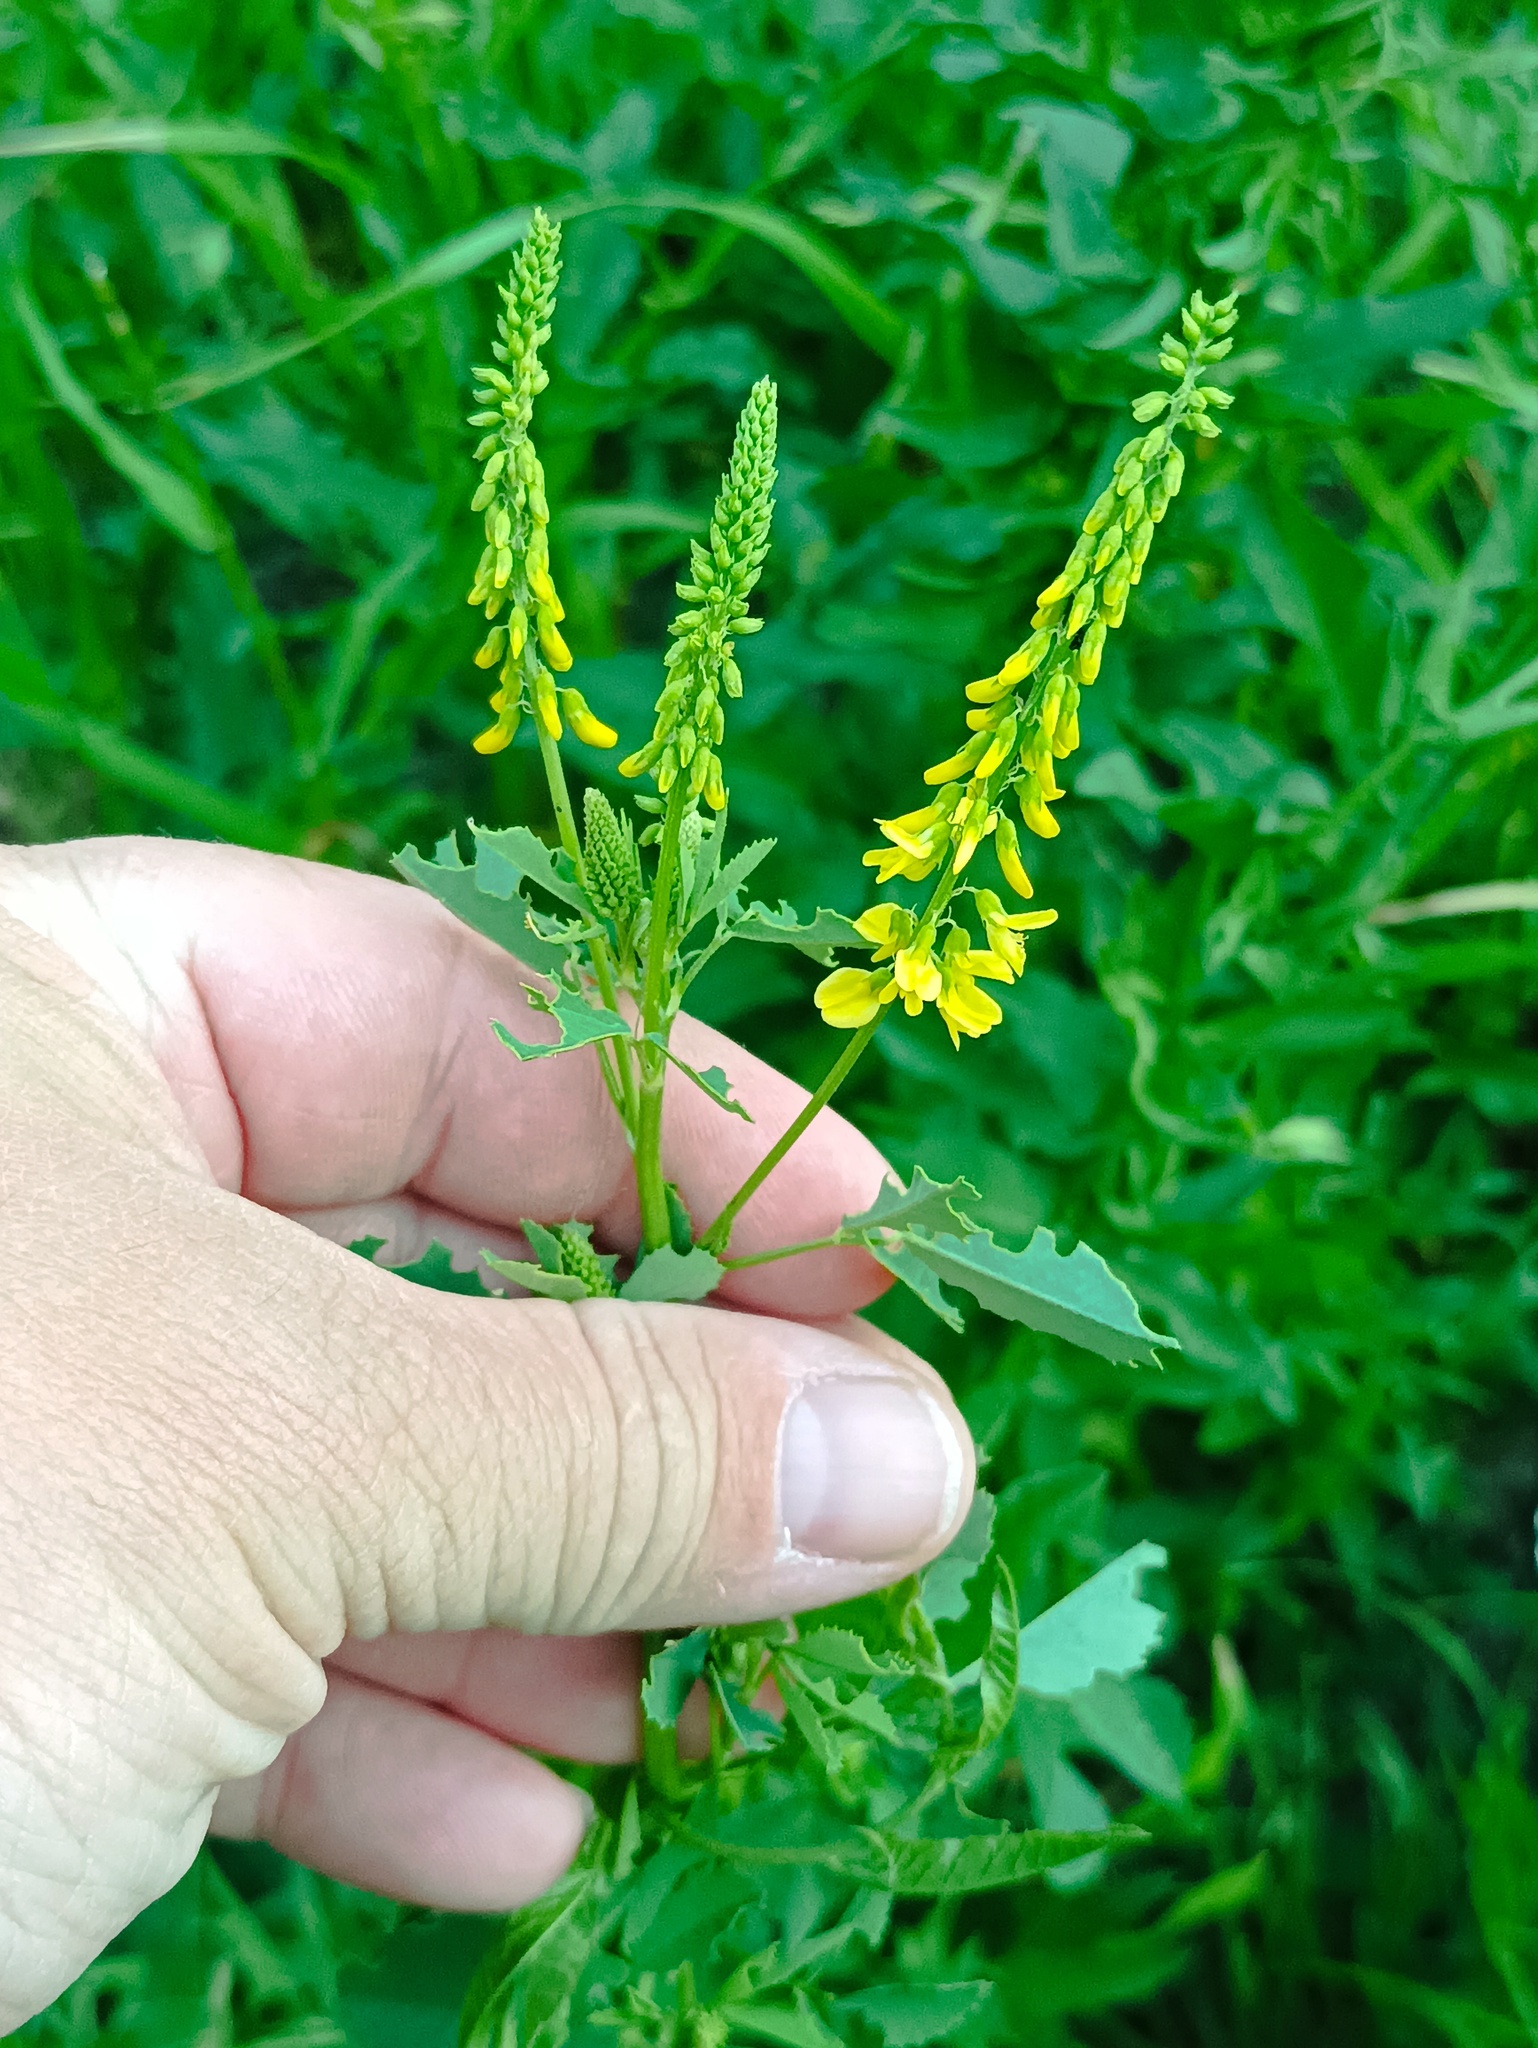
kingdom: Plantae
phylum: Tracheophyta
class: Magnoliopsida
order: Fabales
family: Fabaceae
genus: Melilotus
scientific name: Melilotus officinalis
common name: Sweetclover
